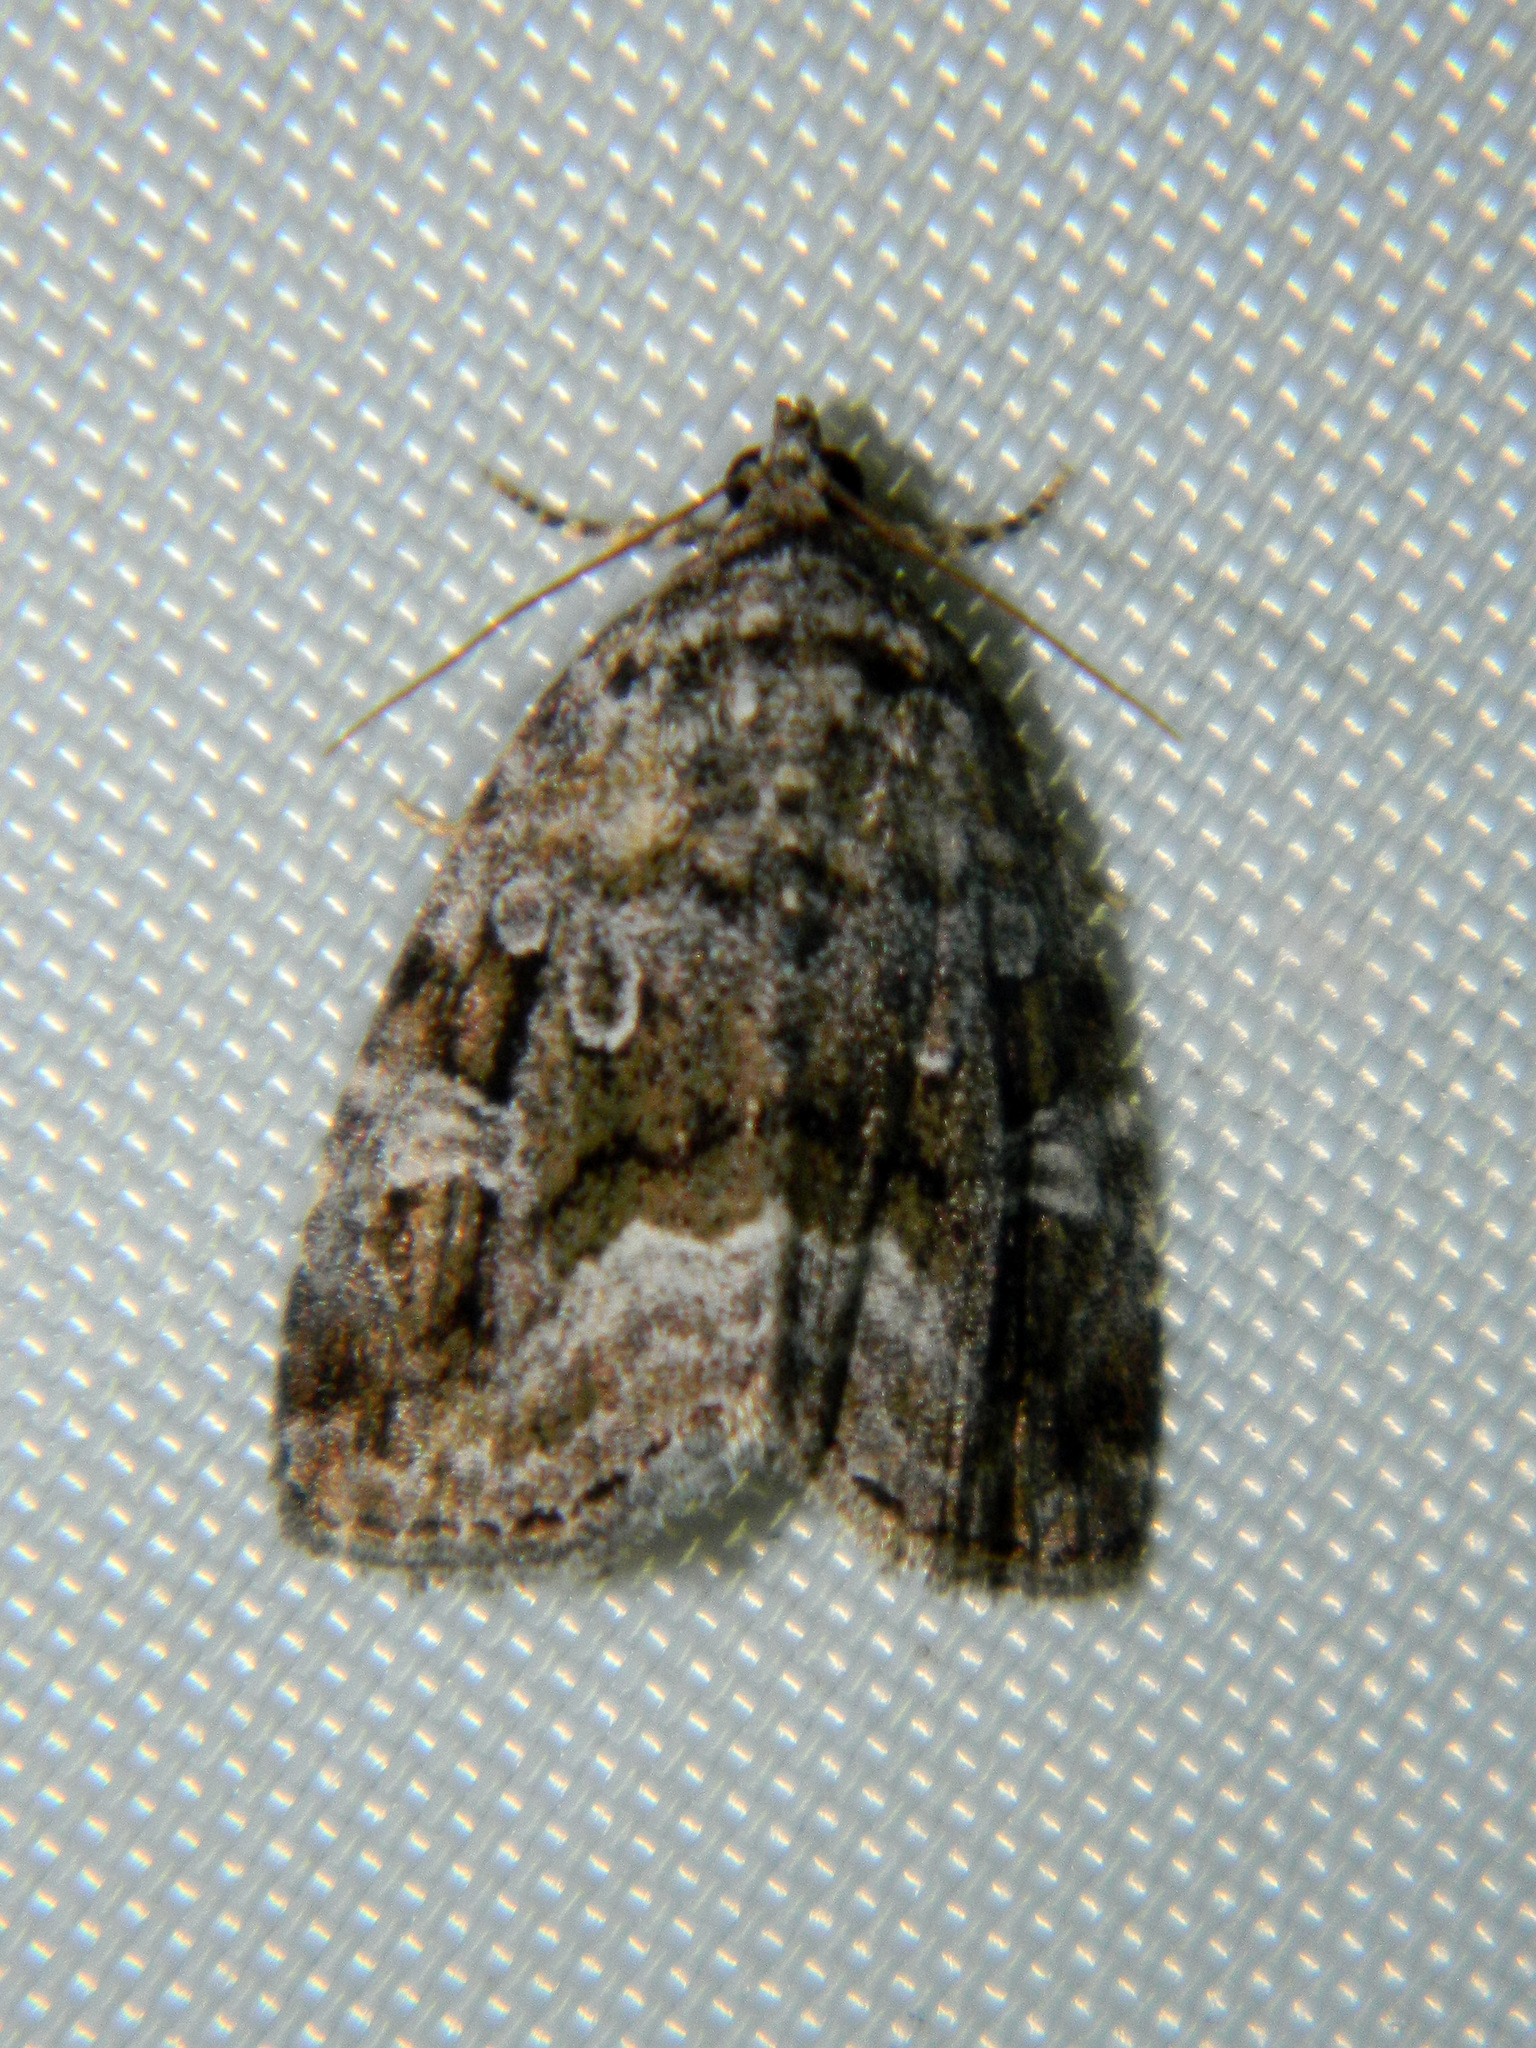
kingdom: Animalia
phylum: Arthropoda
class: Insecta
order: Lepidoptera
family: Noctuidae
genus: Protodeltote
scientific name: Protodeltote muscosula
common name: Large mossy glyph
